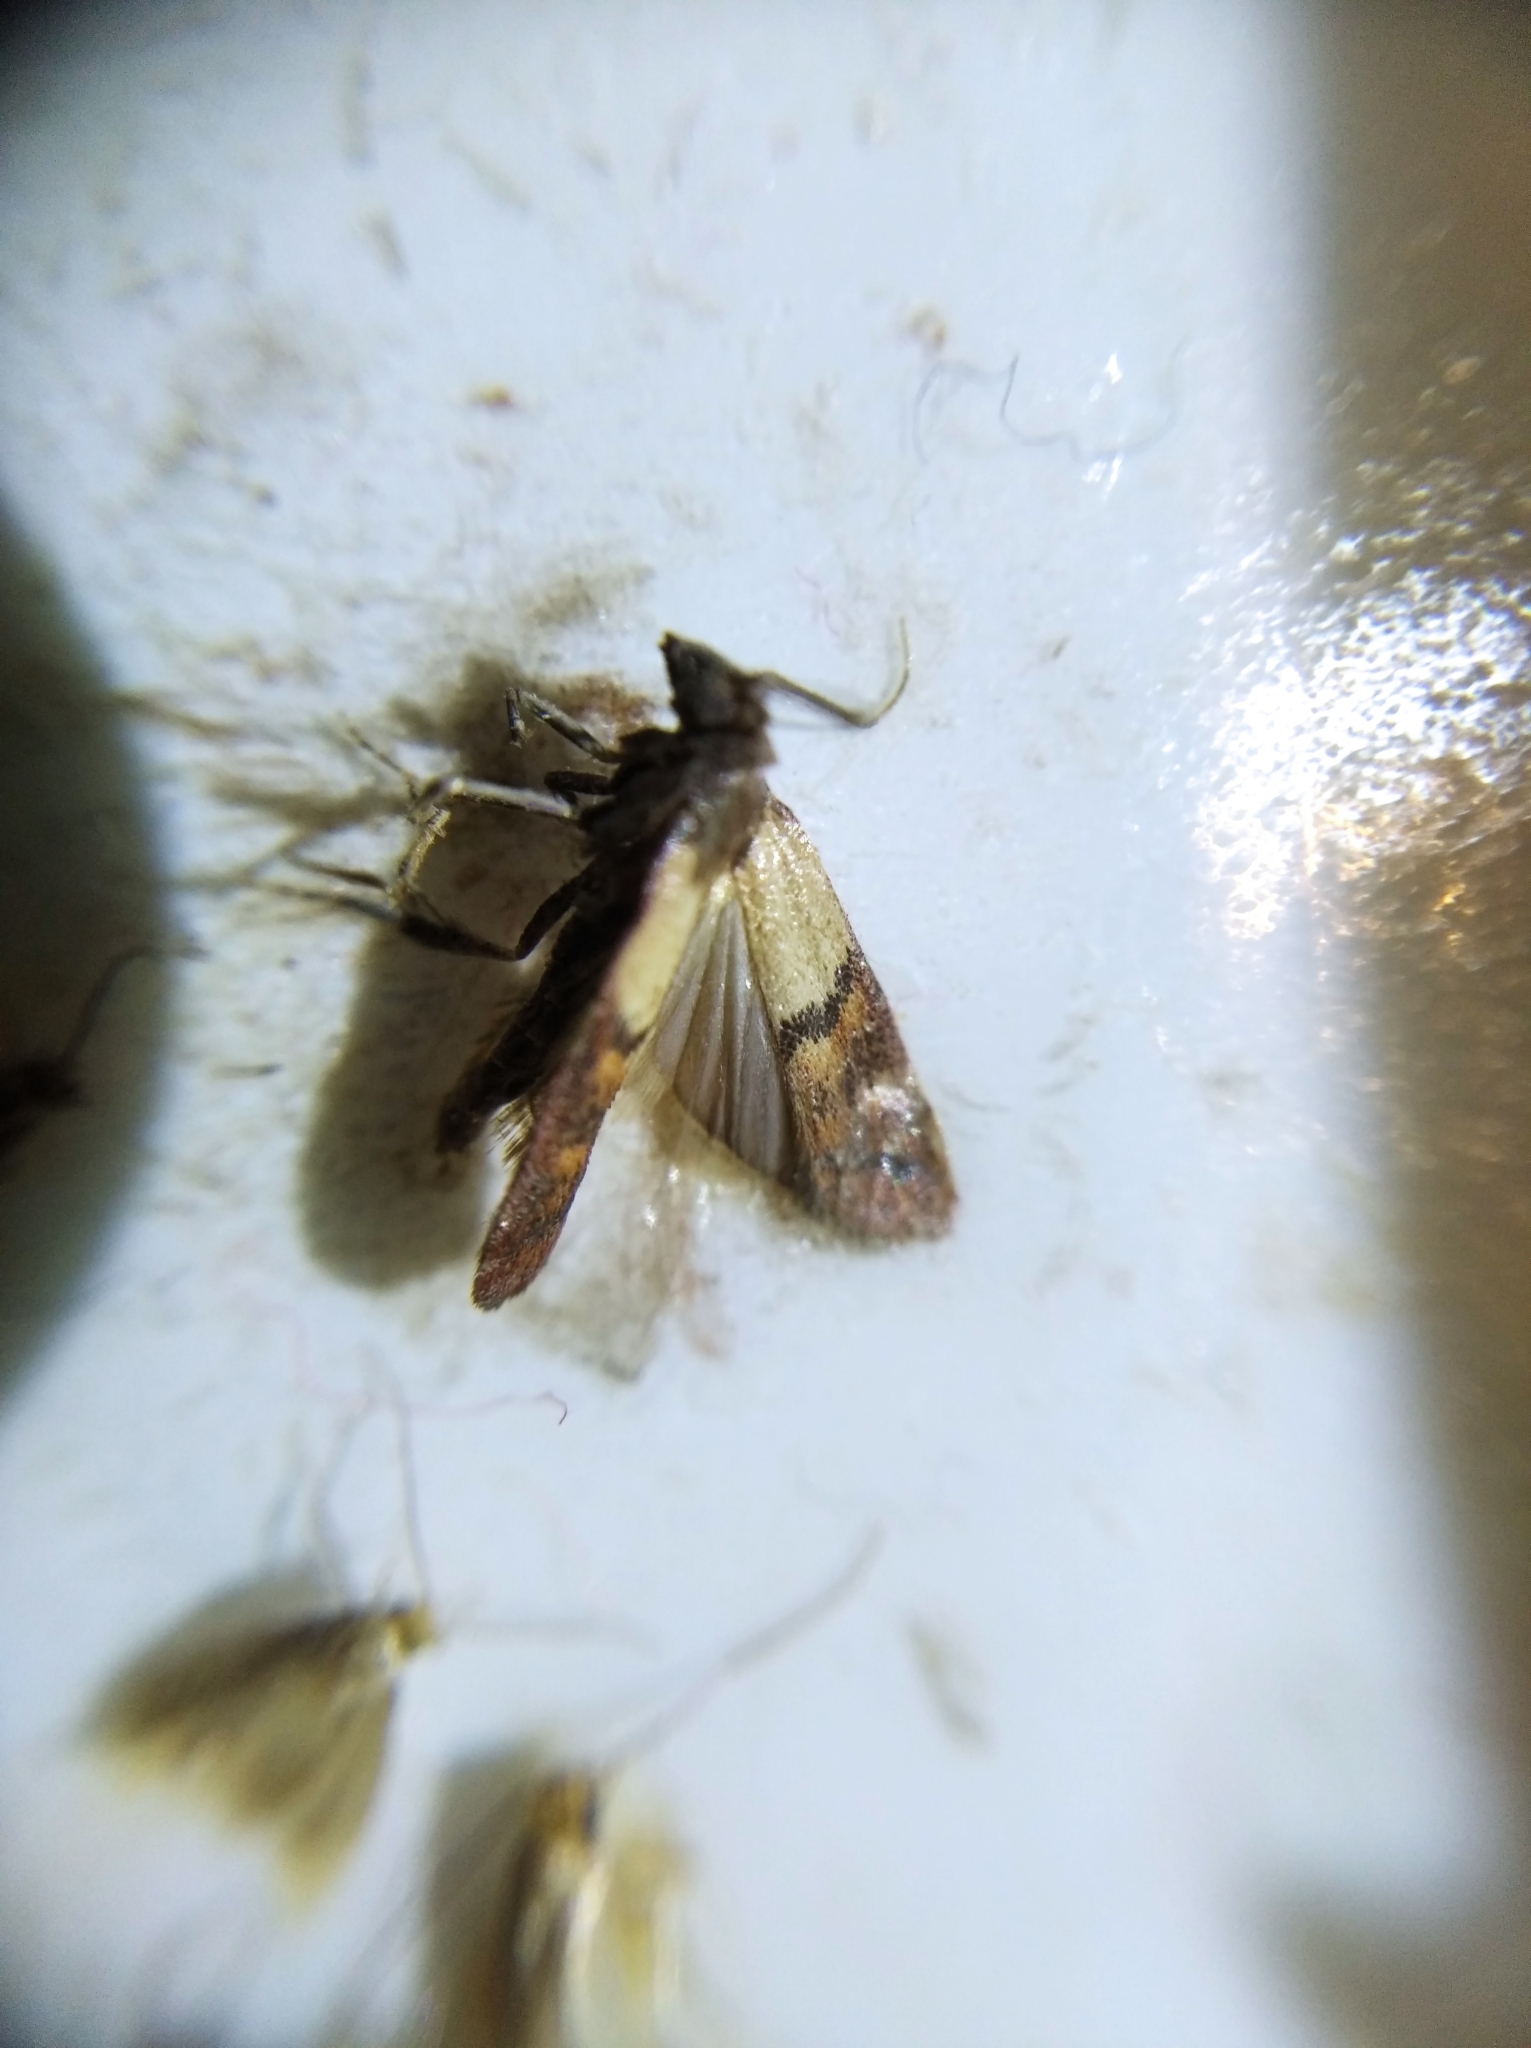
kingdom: Animalia
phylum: Arthropoda
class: Insecta
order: Lepidoptera
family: Pyralidae
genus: Plodia
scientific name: Plodia interpunctella
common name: Indian meal moth
